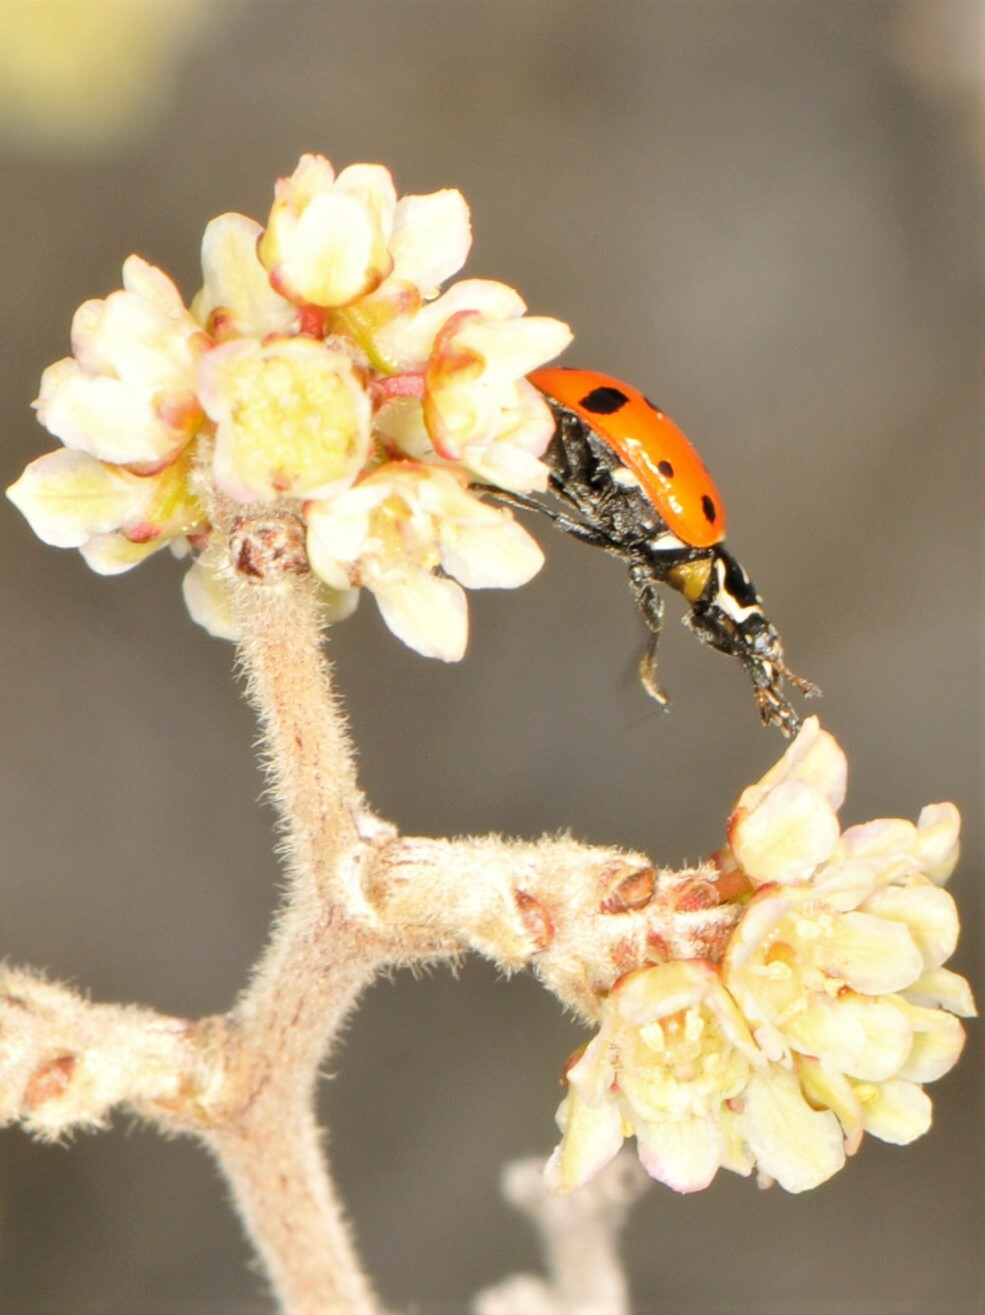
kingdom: Animalia
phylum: Arthropoda
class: Insecta
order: Coleoptera
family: Coccinellidae
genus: Hippodamia
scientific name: Hippodamia convergens
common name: Convergent lady beetle
